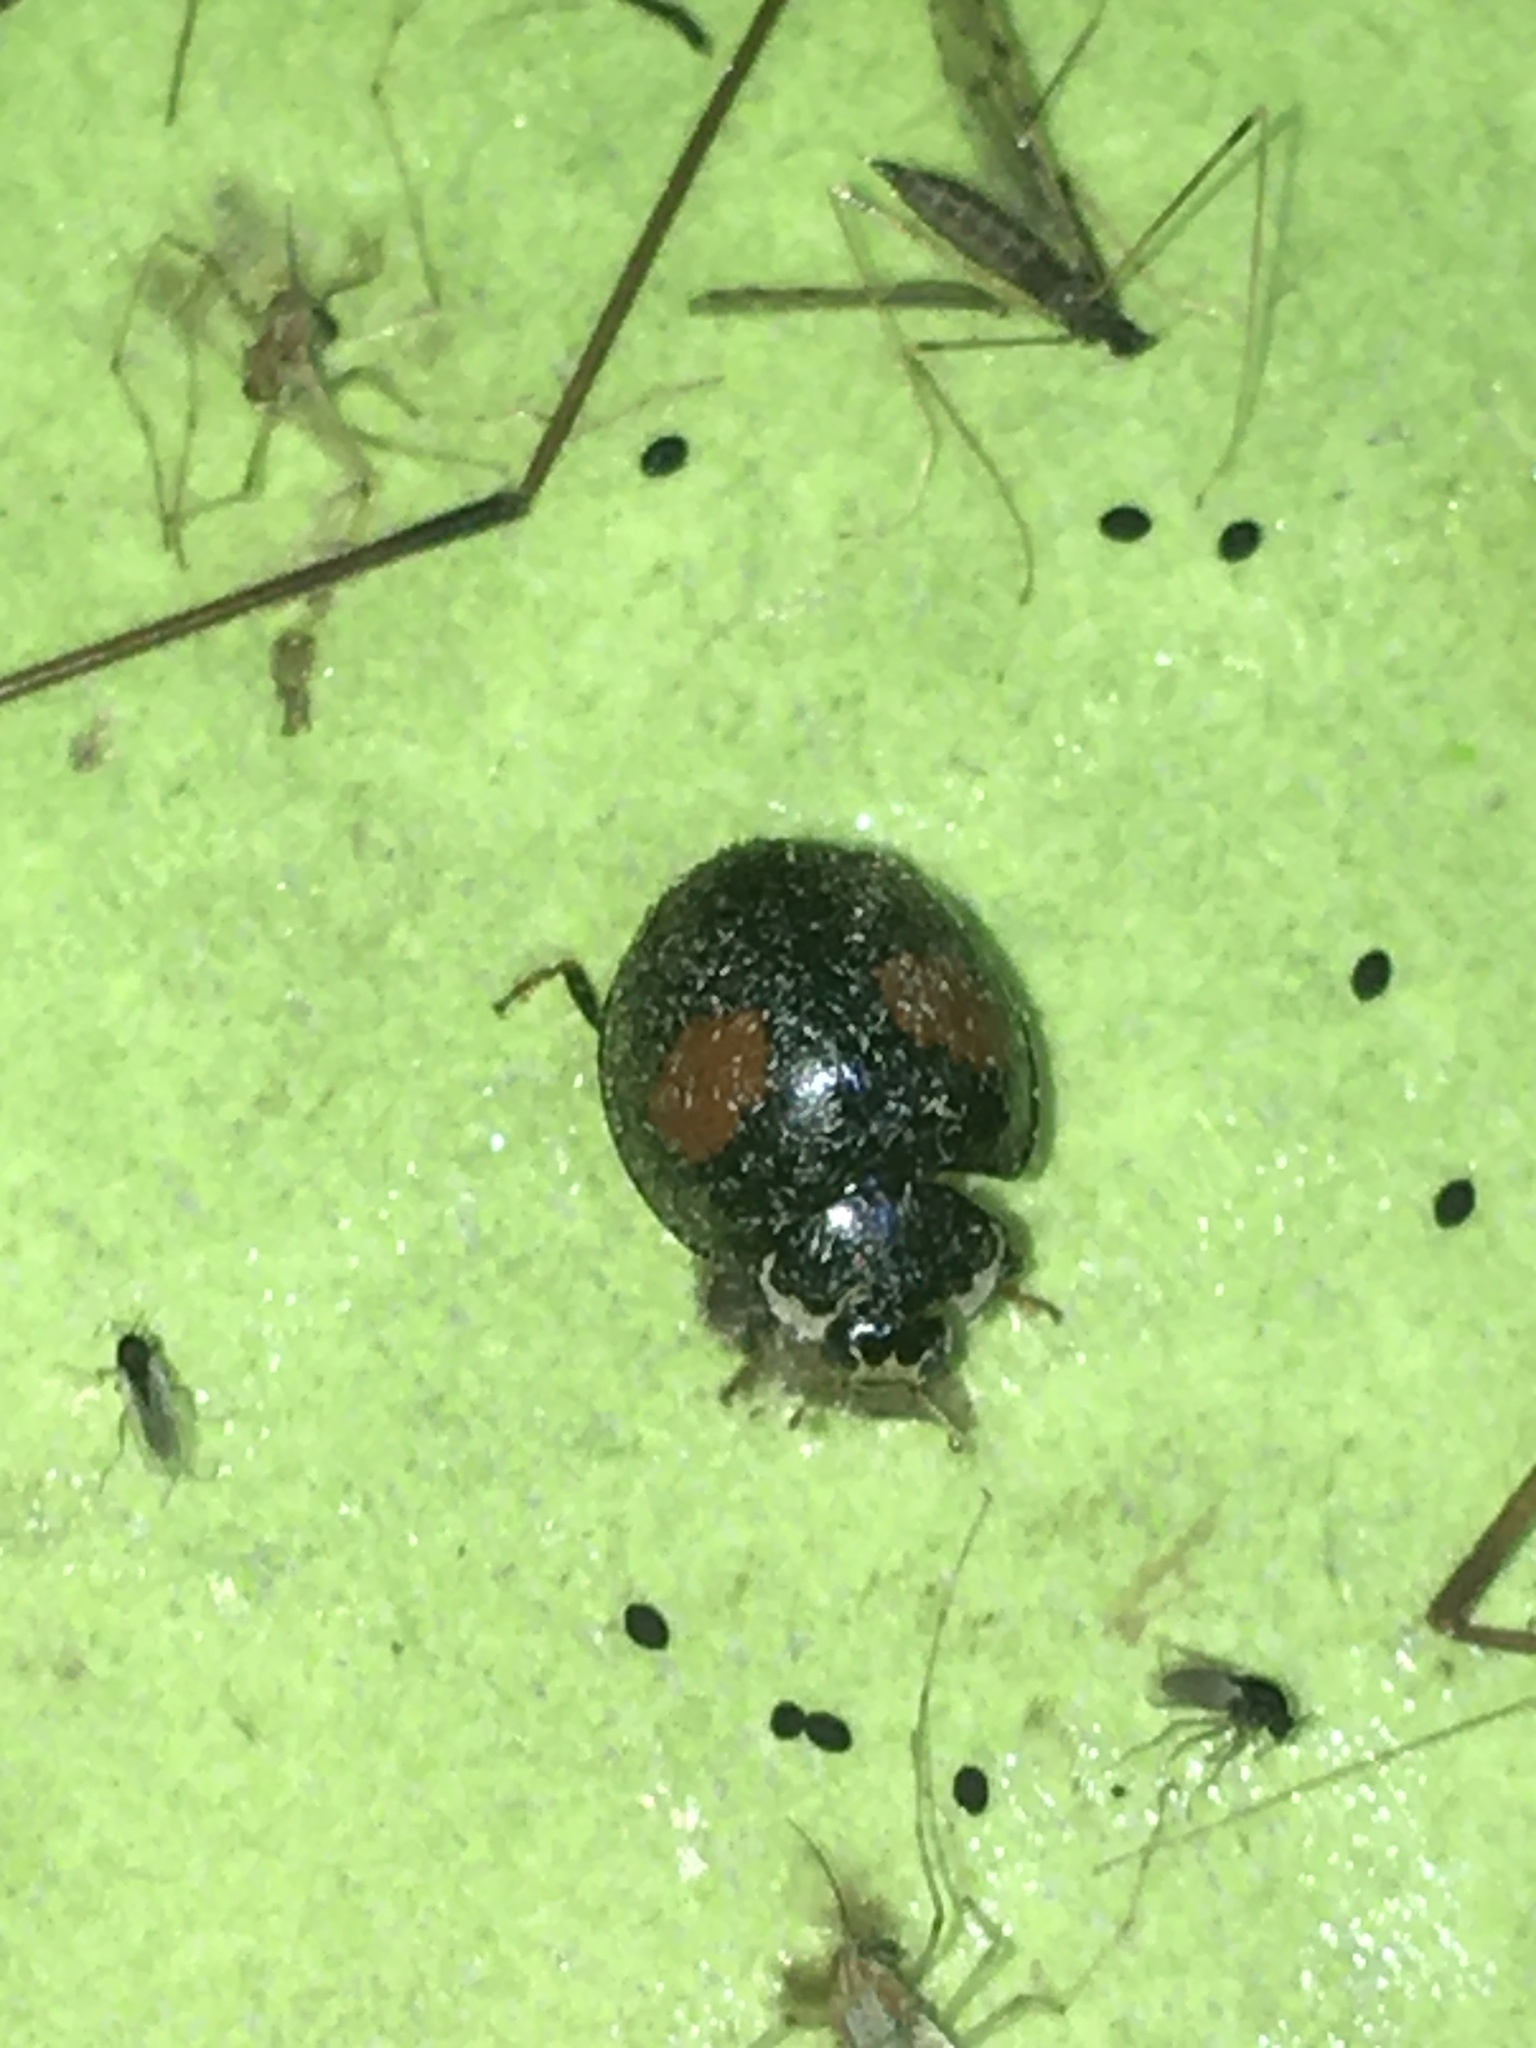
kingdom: Animalia
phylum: Arthropoda
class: Insecta
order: Coleoptera
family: Coccinellidae
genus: Olla
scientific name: Olla v-nigrum
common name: Ashy gray lady beetle
